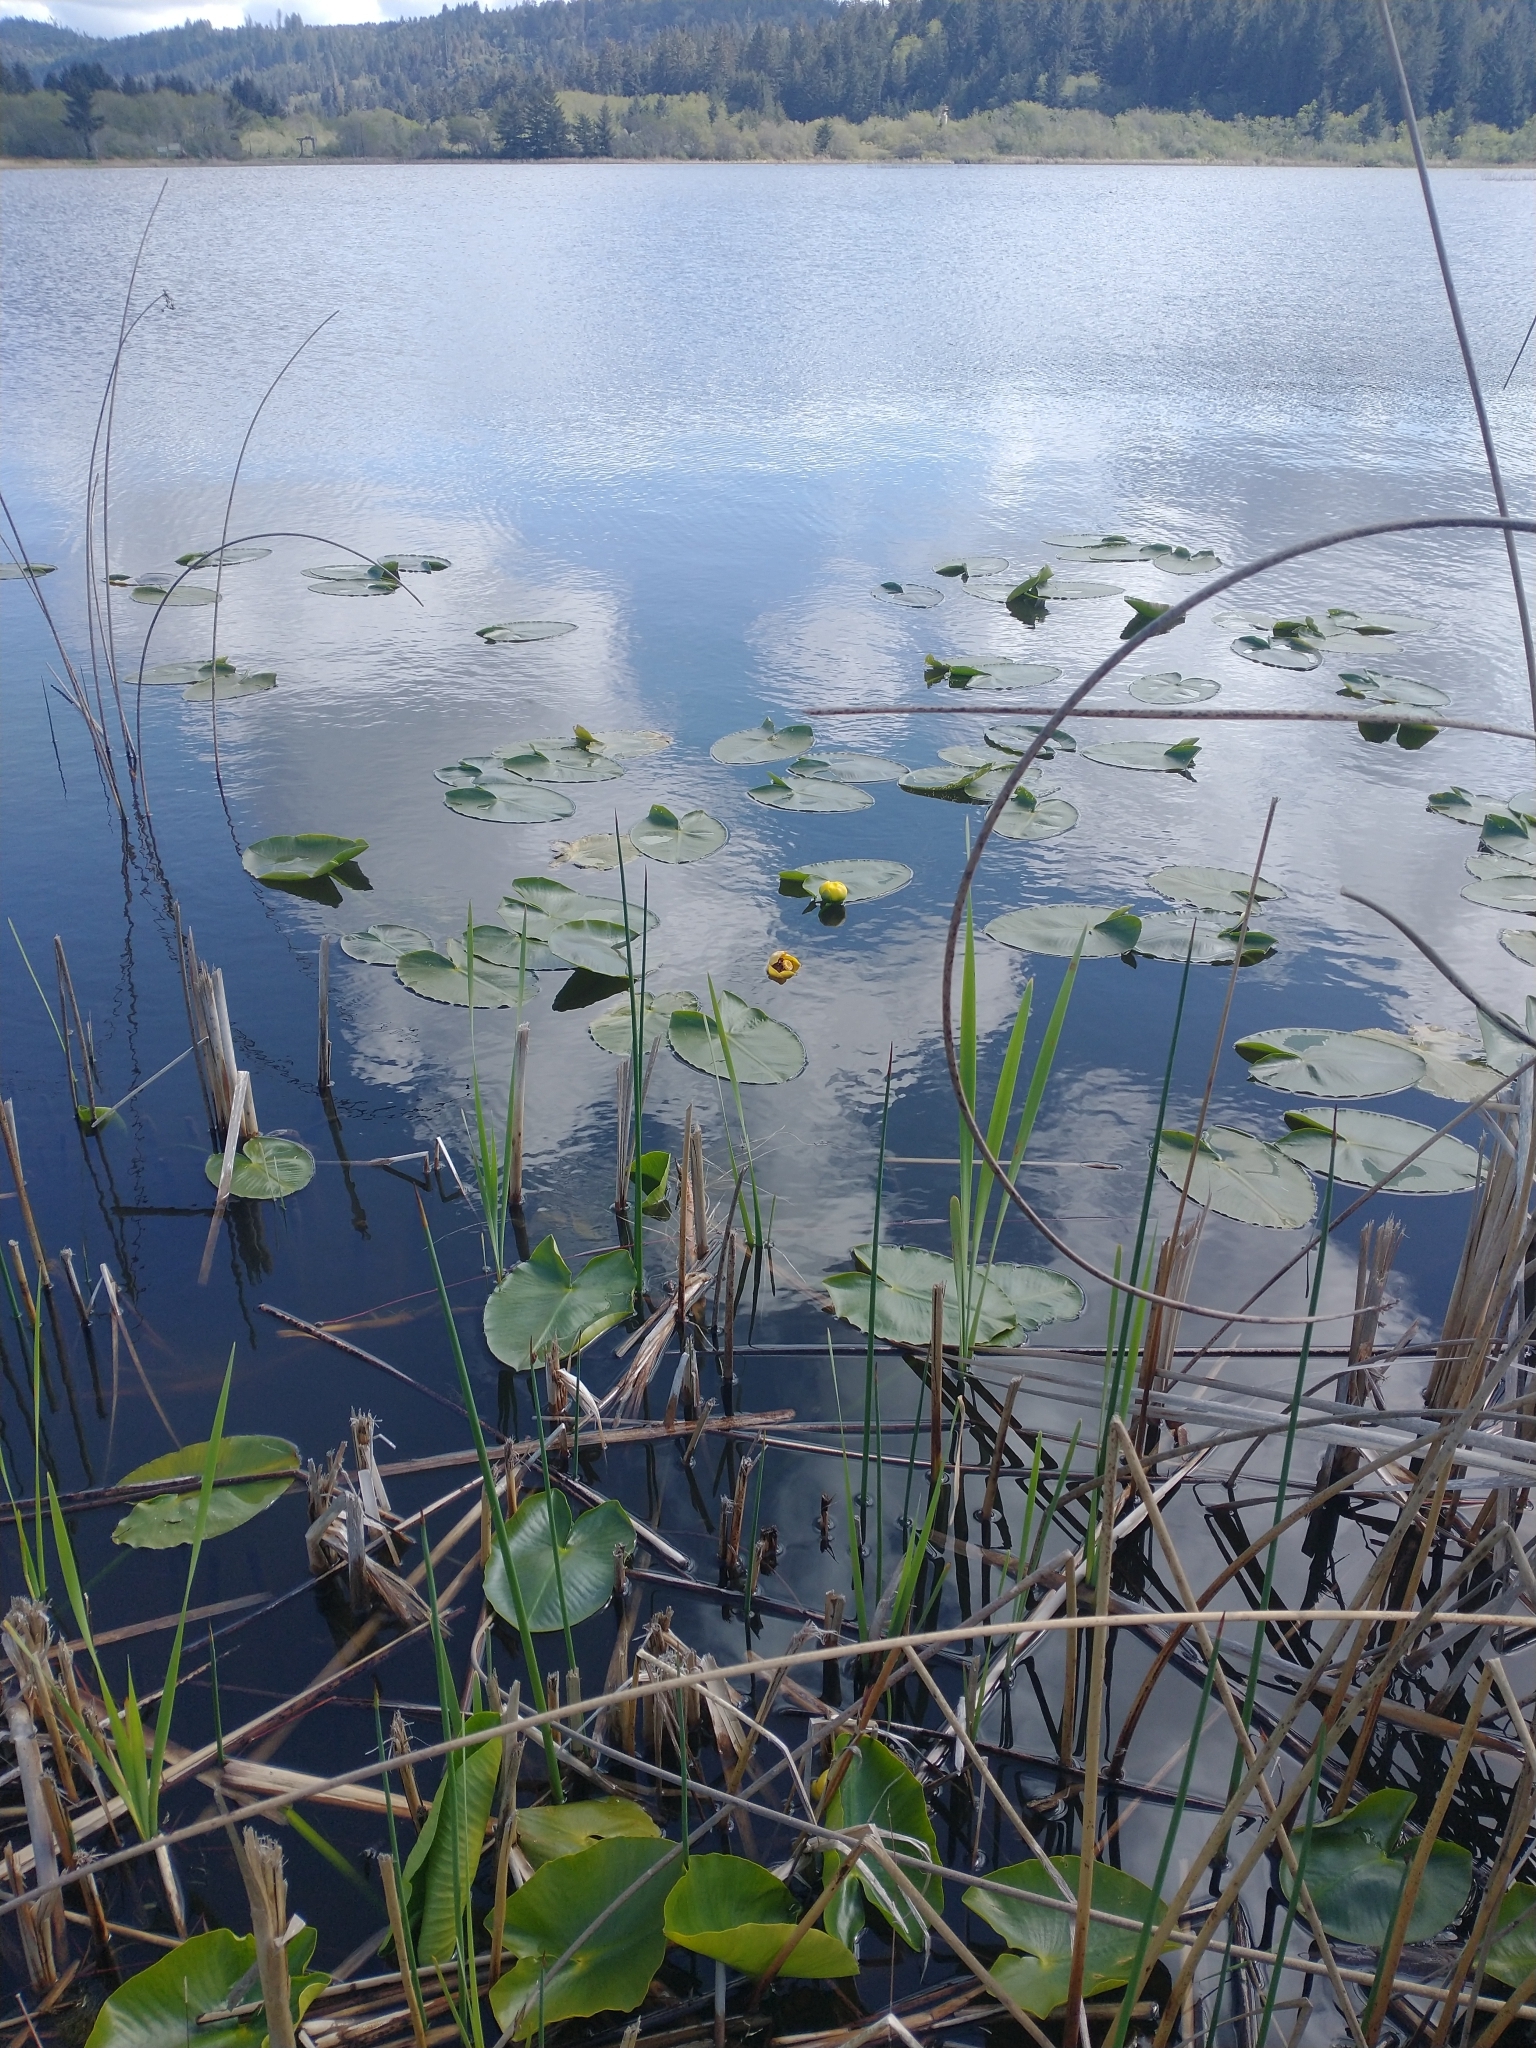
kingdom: Plantae
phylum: Tracheophyta
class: Magnoliopsida
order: Nymphaeales
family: Nymphaeaceae
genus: Nuphar
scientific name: Nuphar polysepala
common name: Rocky mountain cow-lily
